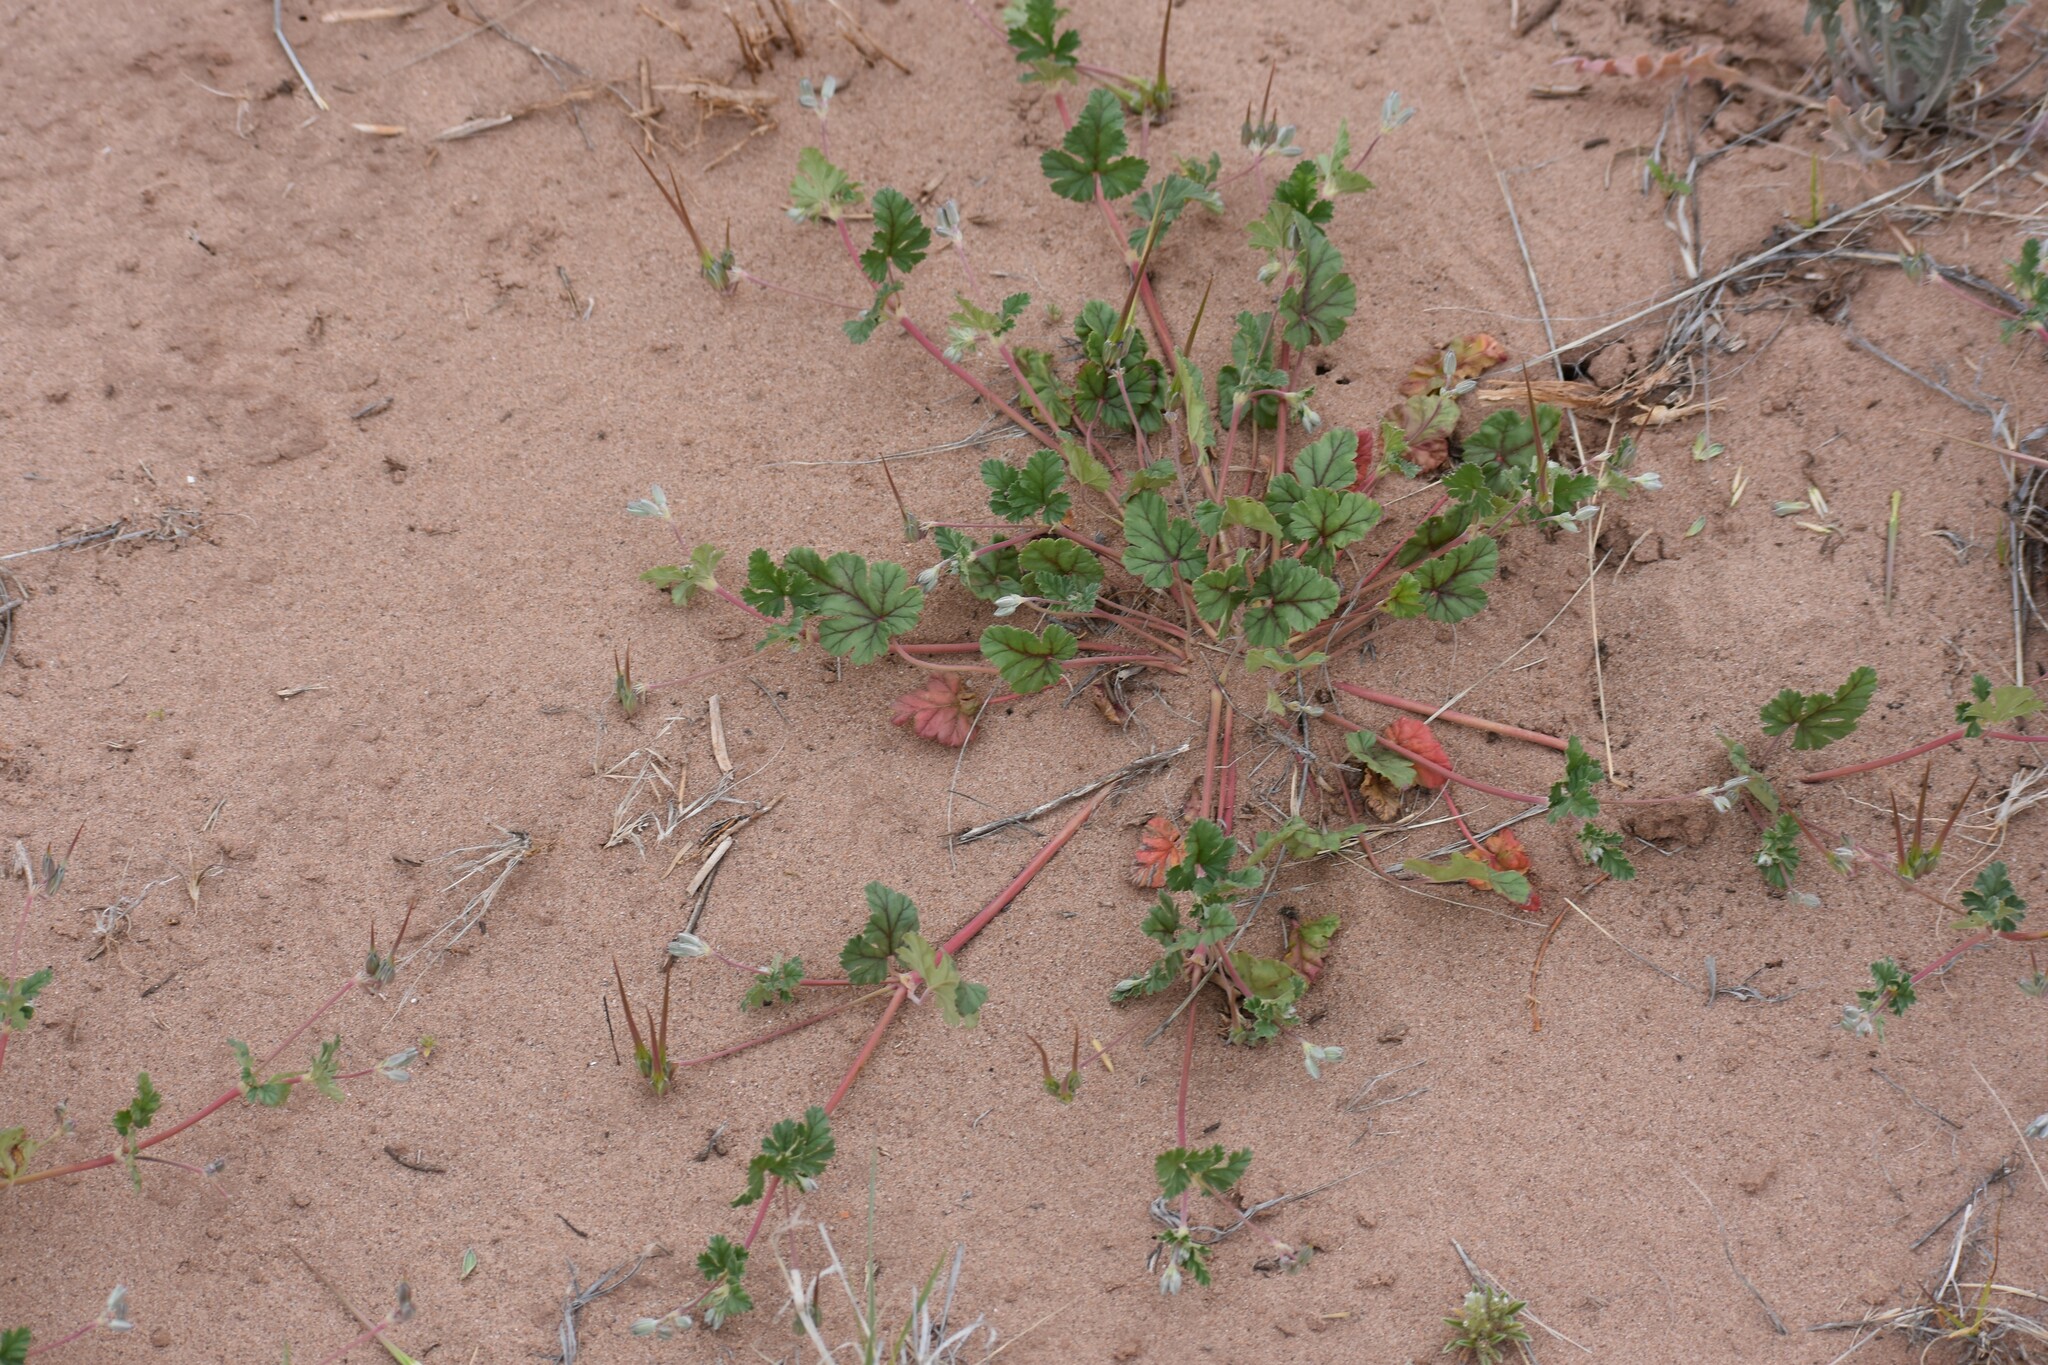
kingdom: Plantae
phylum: Tracheophyta
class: Magnoliopsida
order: Geraniales
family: Geraniaceae
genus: Erodium
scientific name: Erodium texanum
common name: Texas stork's-bill
